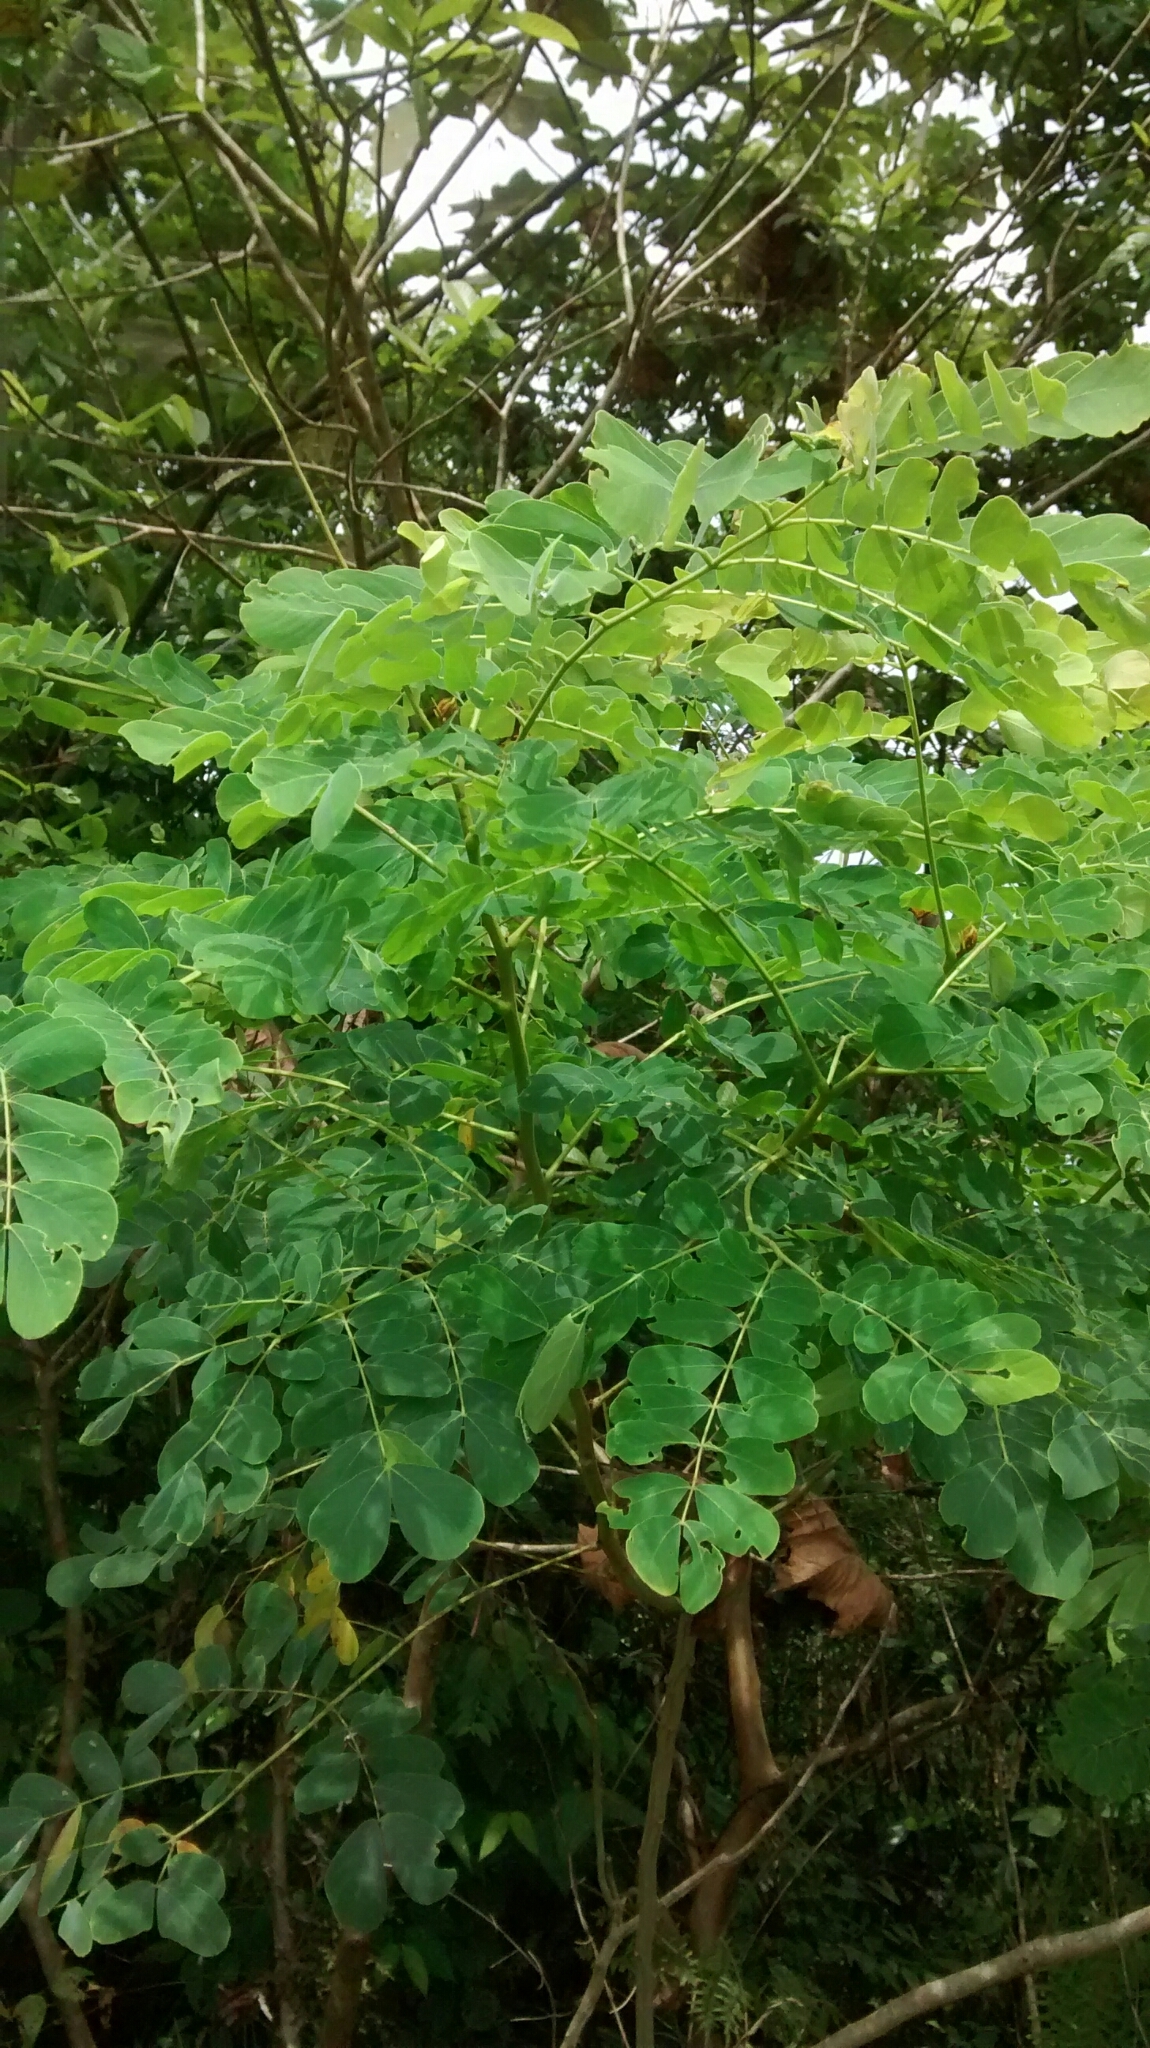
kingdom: Plantae
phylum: Tracheophyta
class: Magnoliopsida
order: Fabales
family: Fabaceae
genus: Samanea
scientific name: Samanea saman
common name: Raintree
